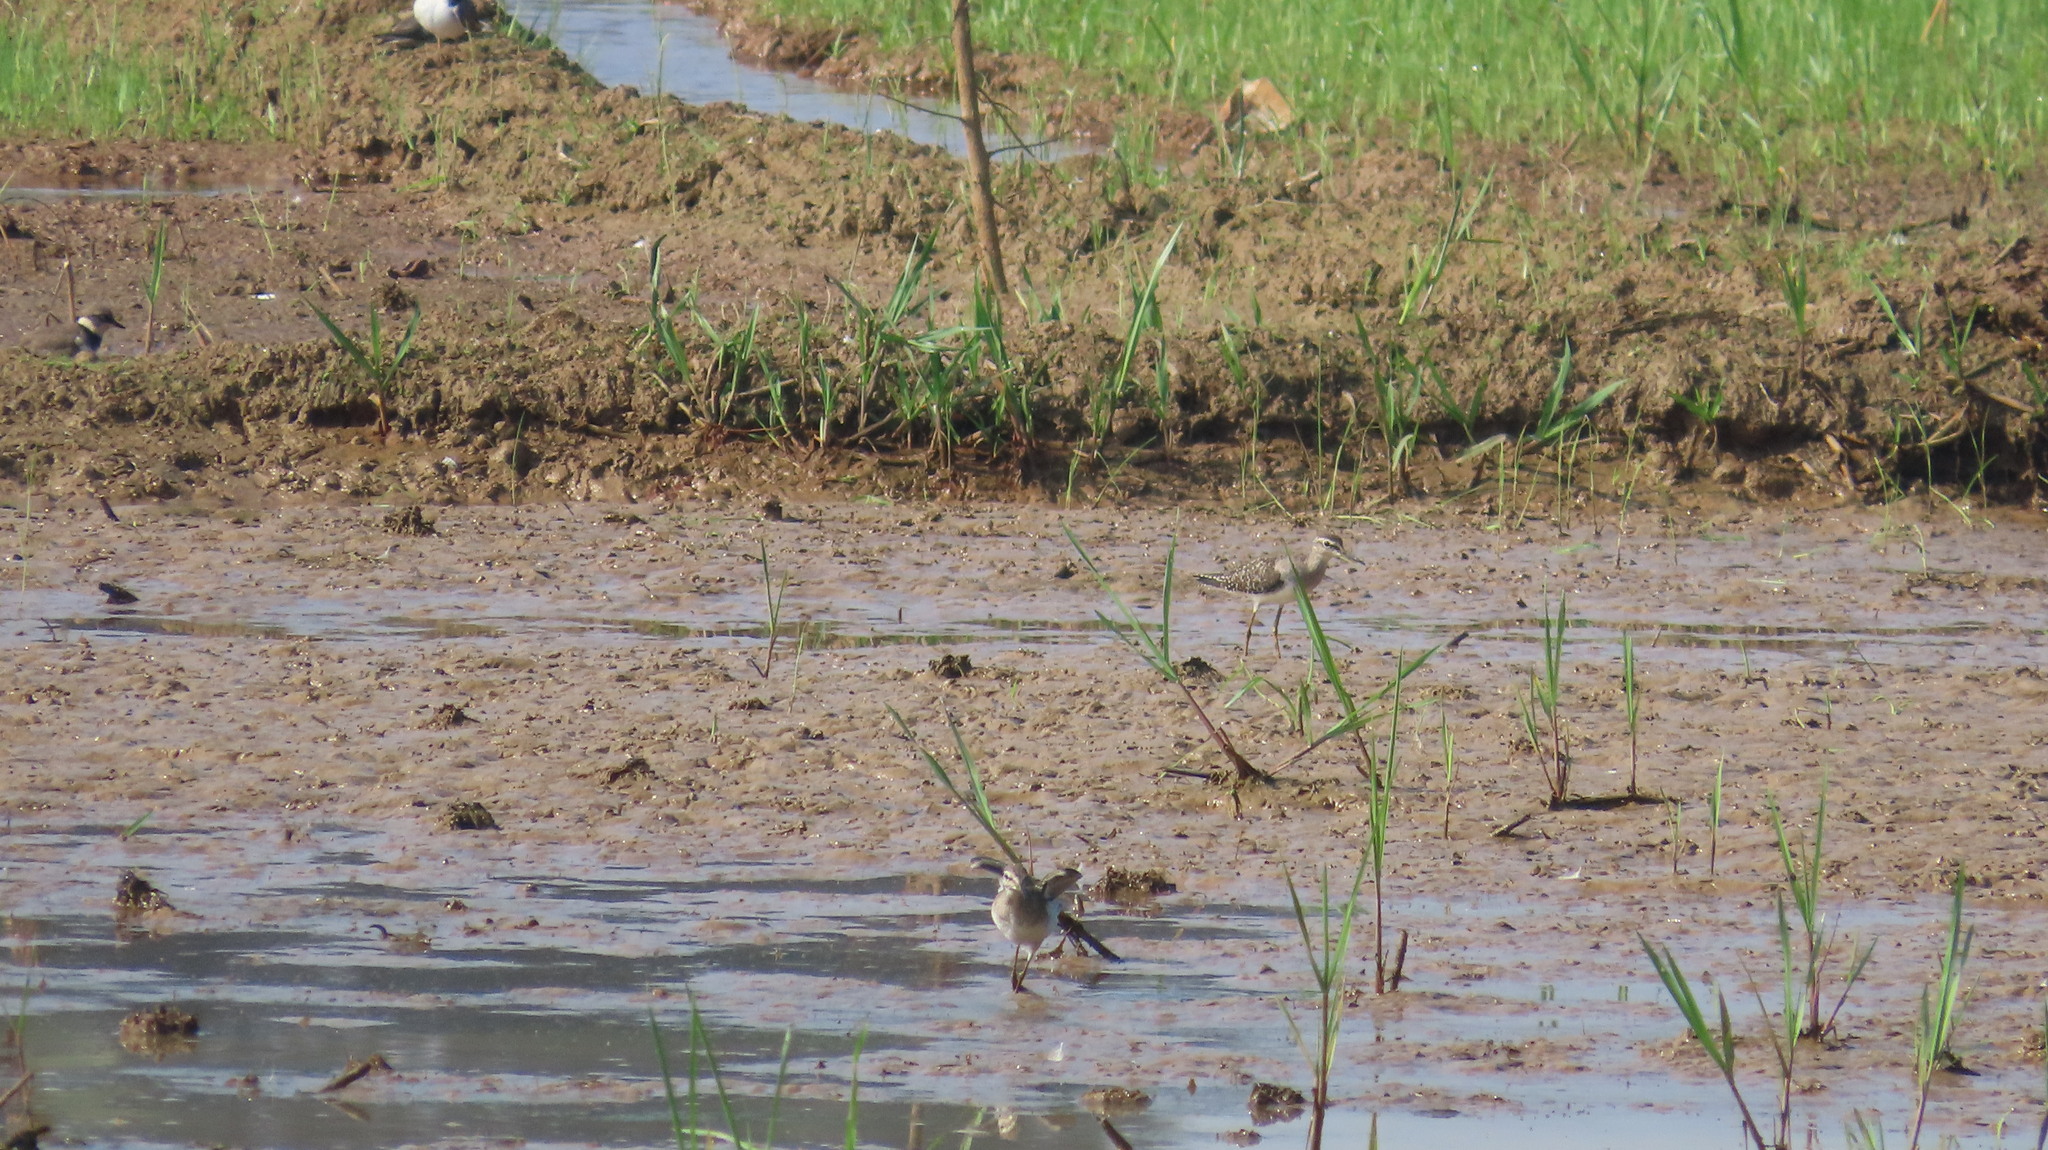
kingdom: Animalia
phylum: Chordata
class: Aves
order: Charadriiformes
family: Scolopacidae
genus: Tringa
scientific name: Tringa glareola
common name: Wood sandpiper
